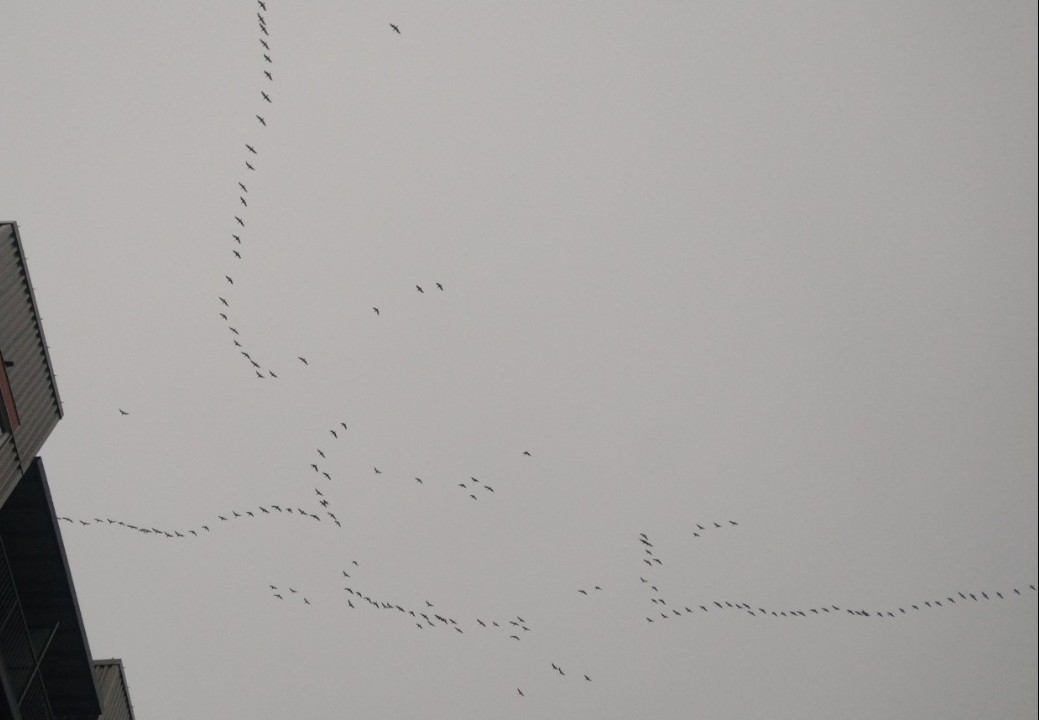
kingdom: Animalia
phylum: Chordata
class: Aves
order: Anseriformes
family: Anatidae
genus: Branta
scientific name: Branta hutchinsii
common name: Cackling goose
